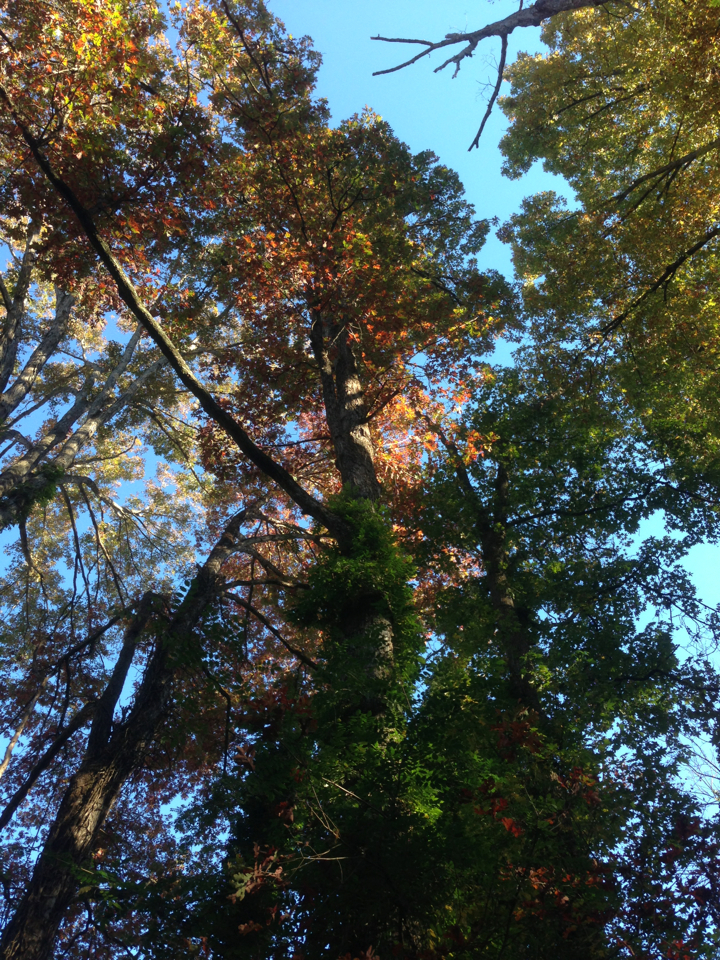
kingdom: Plantae
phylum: Tracheophyta
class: Magnoliopsida
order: Fagales
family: Fagaceae
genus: Quercus
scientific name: Quercus alba
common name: White oak
